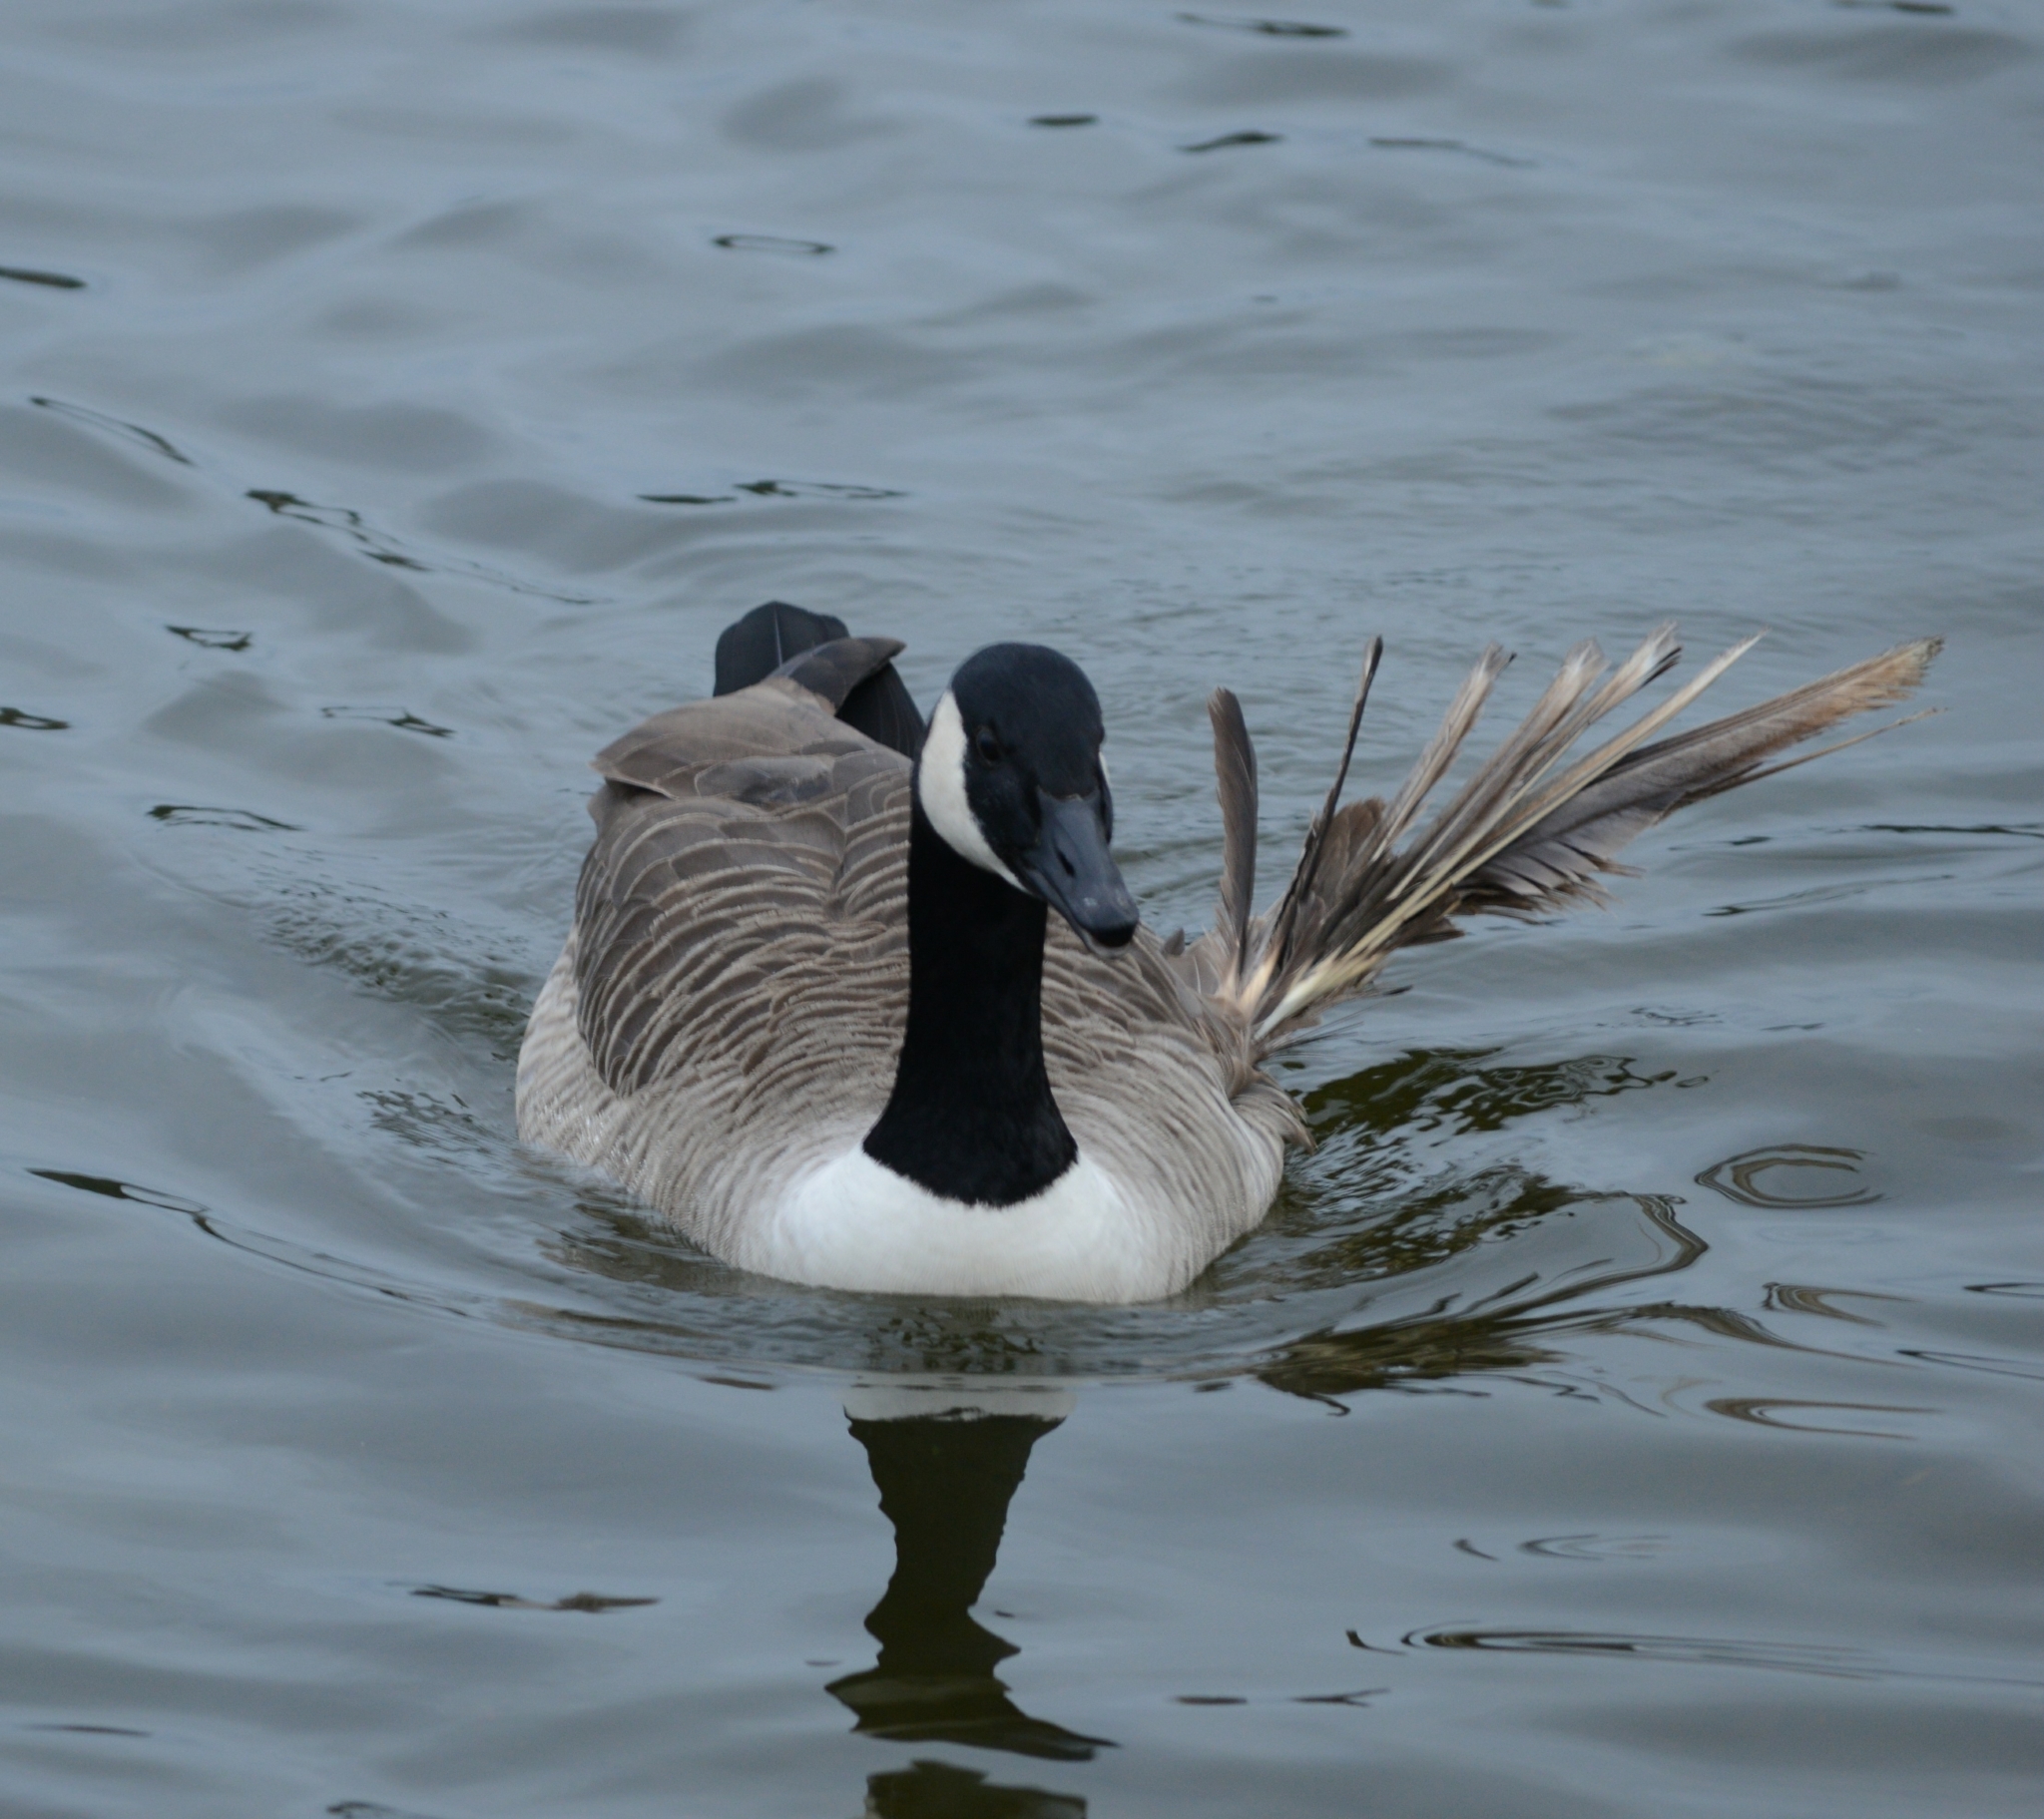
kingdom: Animalia
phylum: Chordata
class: Aves
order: Anseriformes
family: Anatidae
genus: Branta
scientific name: Branta canadensis
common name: Canada goose
